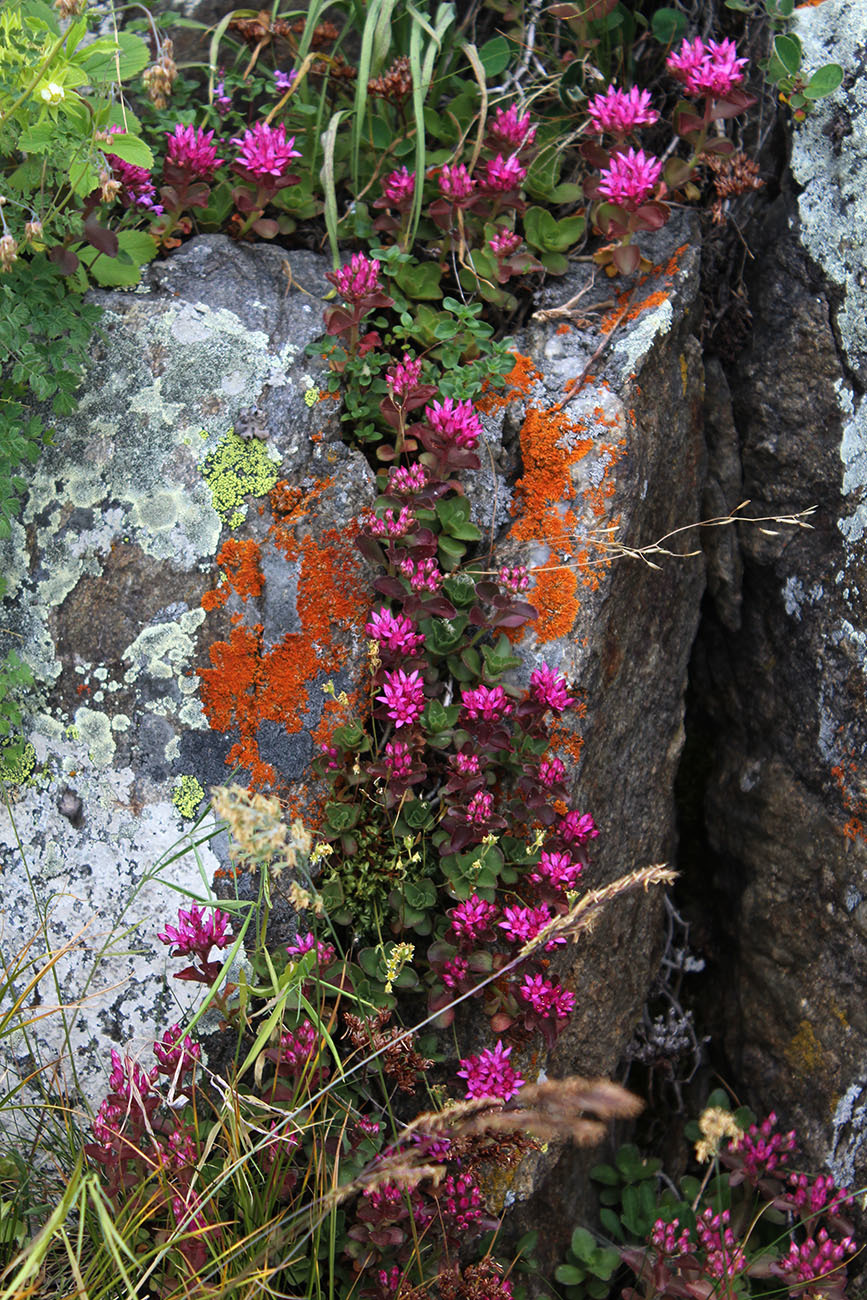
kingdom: Plantae
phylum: Tracheophyta
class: Magnoliopsida
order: Saxifragales
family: Crassulaceae
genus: Phedimus
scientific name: Phedimus spurius
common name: Caucasian stonecrop
